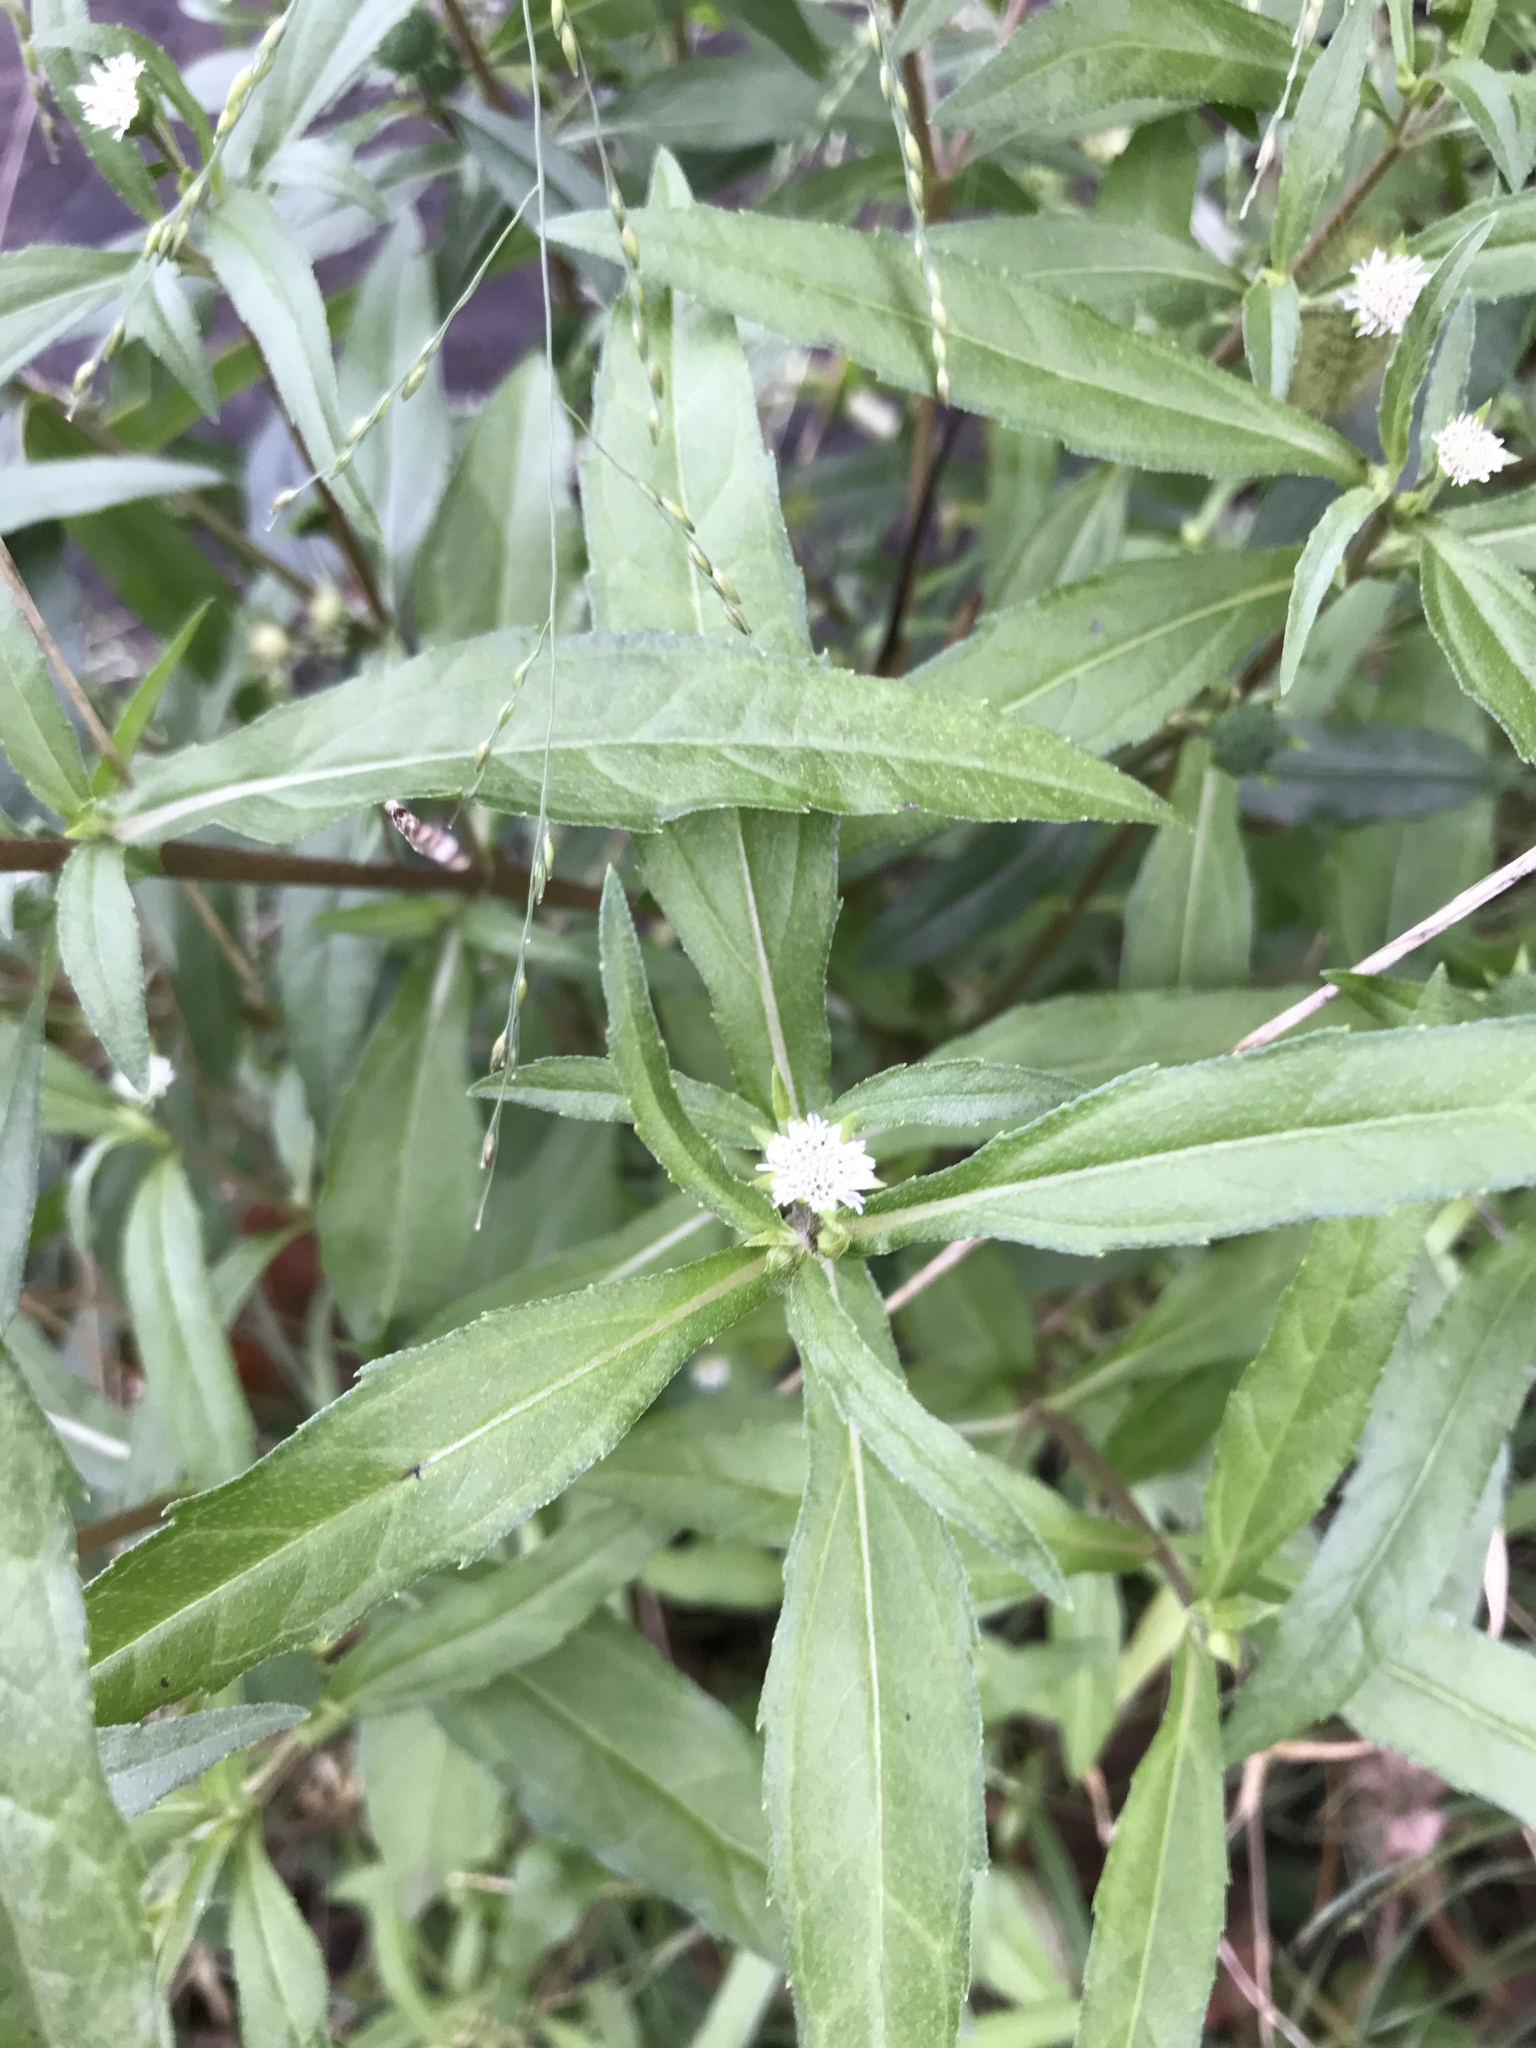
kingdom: Plantae
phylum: Tracheophyta
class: Magnoliopsida
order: Asterales
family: Asteraceae
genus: Eclipta
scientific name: Eclipta prostrata
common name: False daisy
